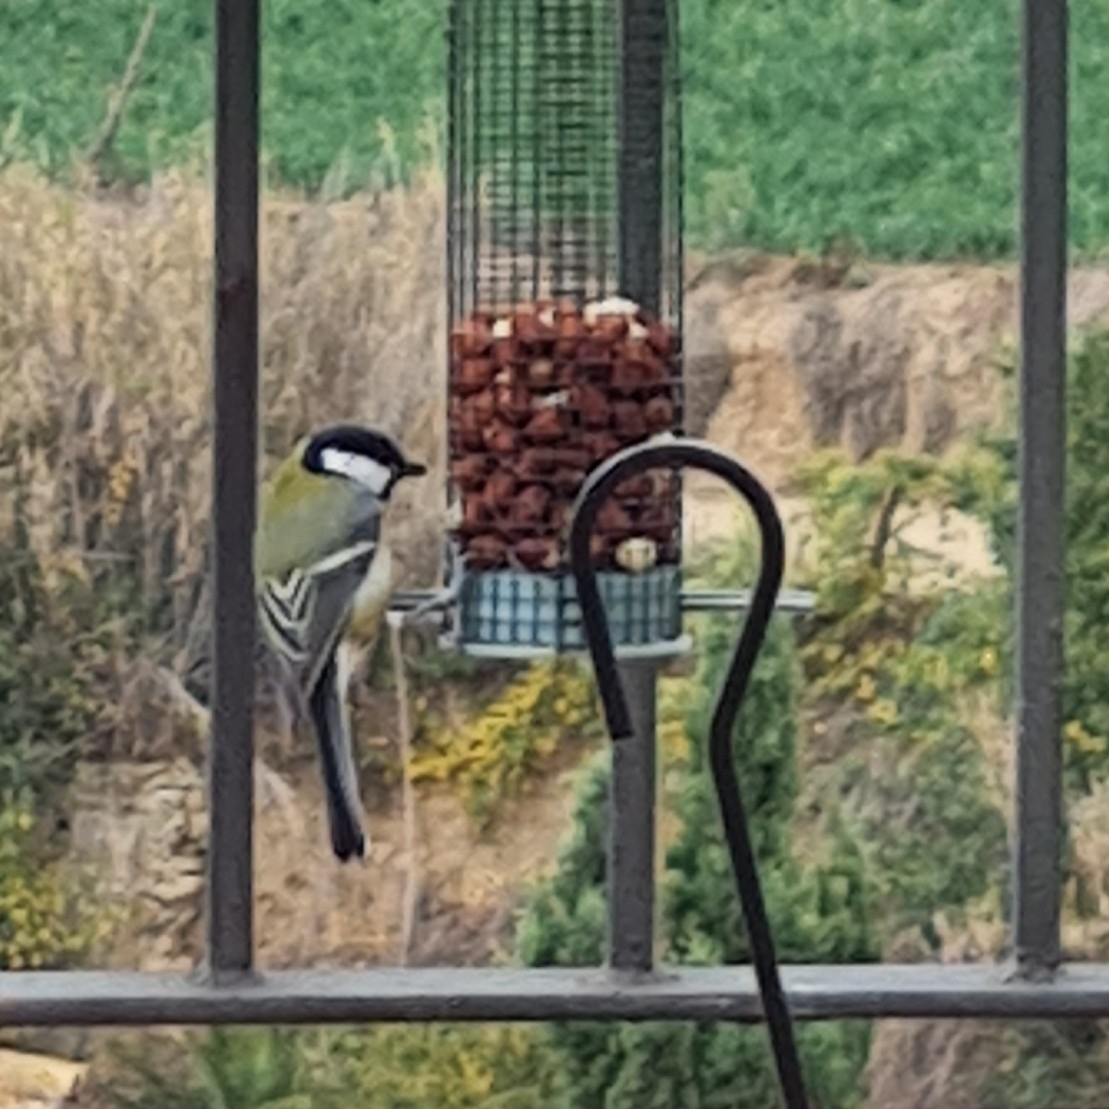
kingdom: Animalia
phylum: Chordata
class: Aves
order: Passeriformes
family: Paridae
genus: Parus
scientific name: Parus major
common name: Great tit
